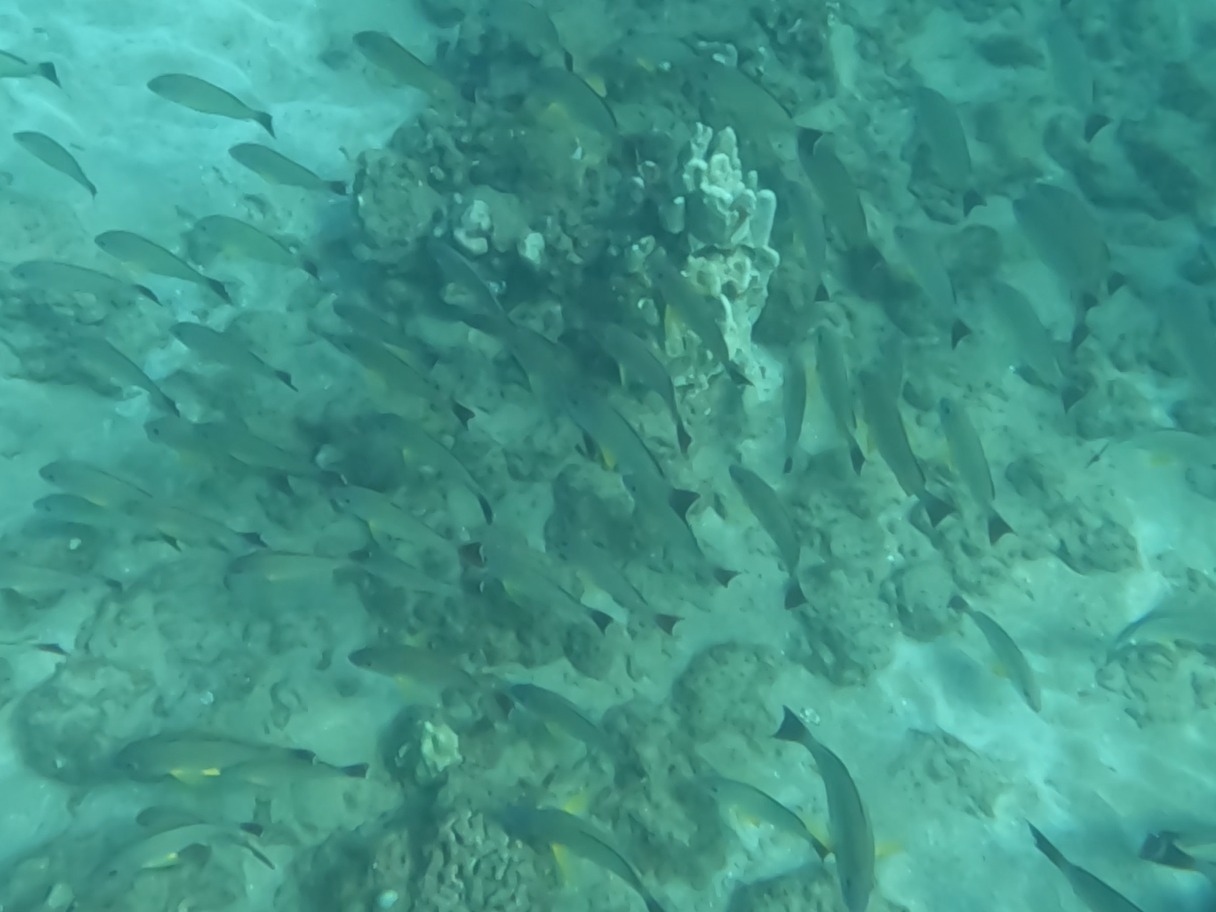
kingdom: Animalia
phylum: Chordata
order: Perciformes
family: Lutjanidae
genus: Lutjanus
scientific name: Lutjanus fulvus
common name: Blacktail snapper
